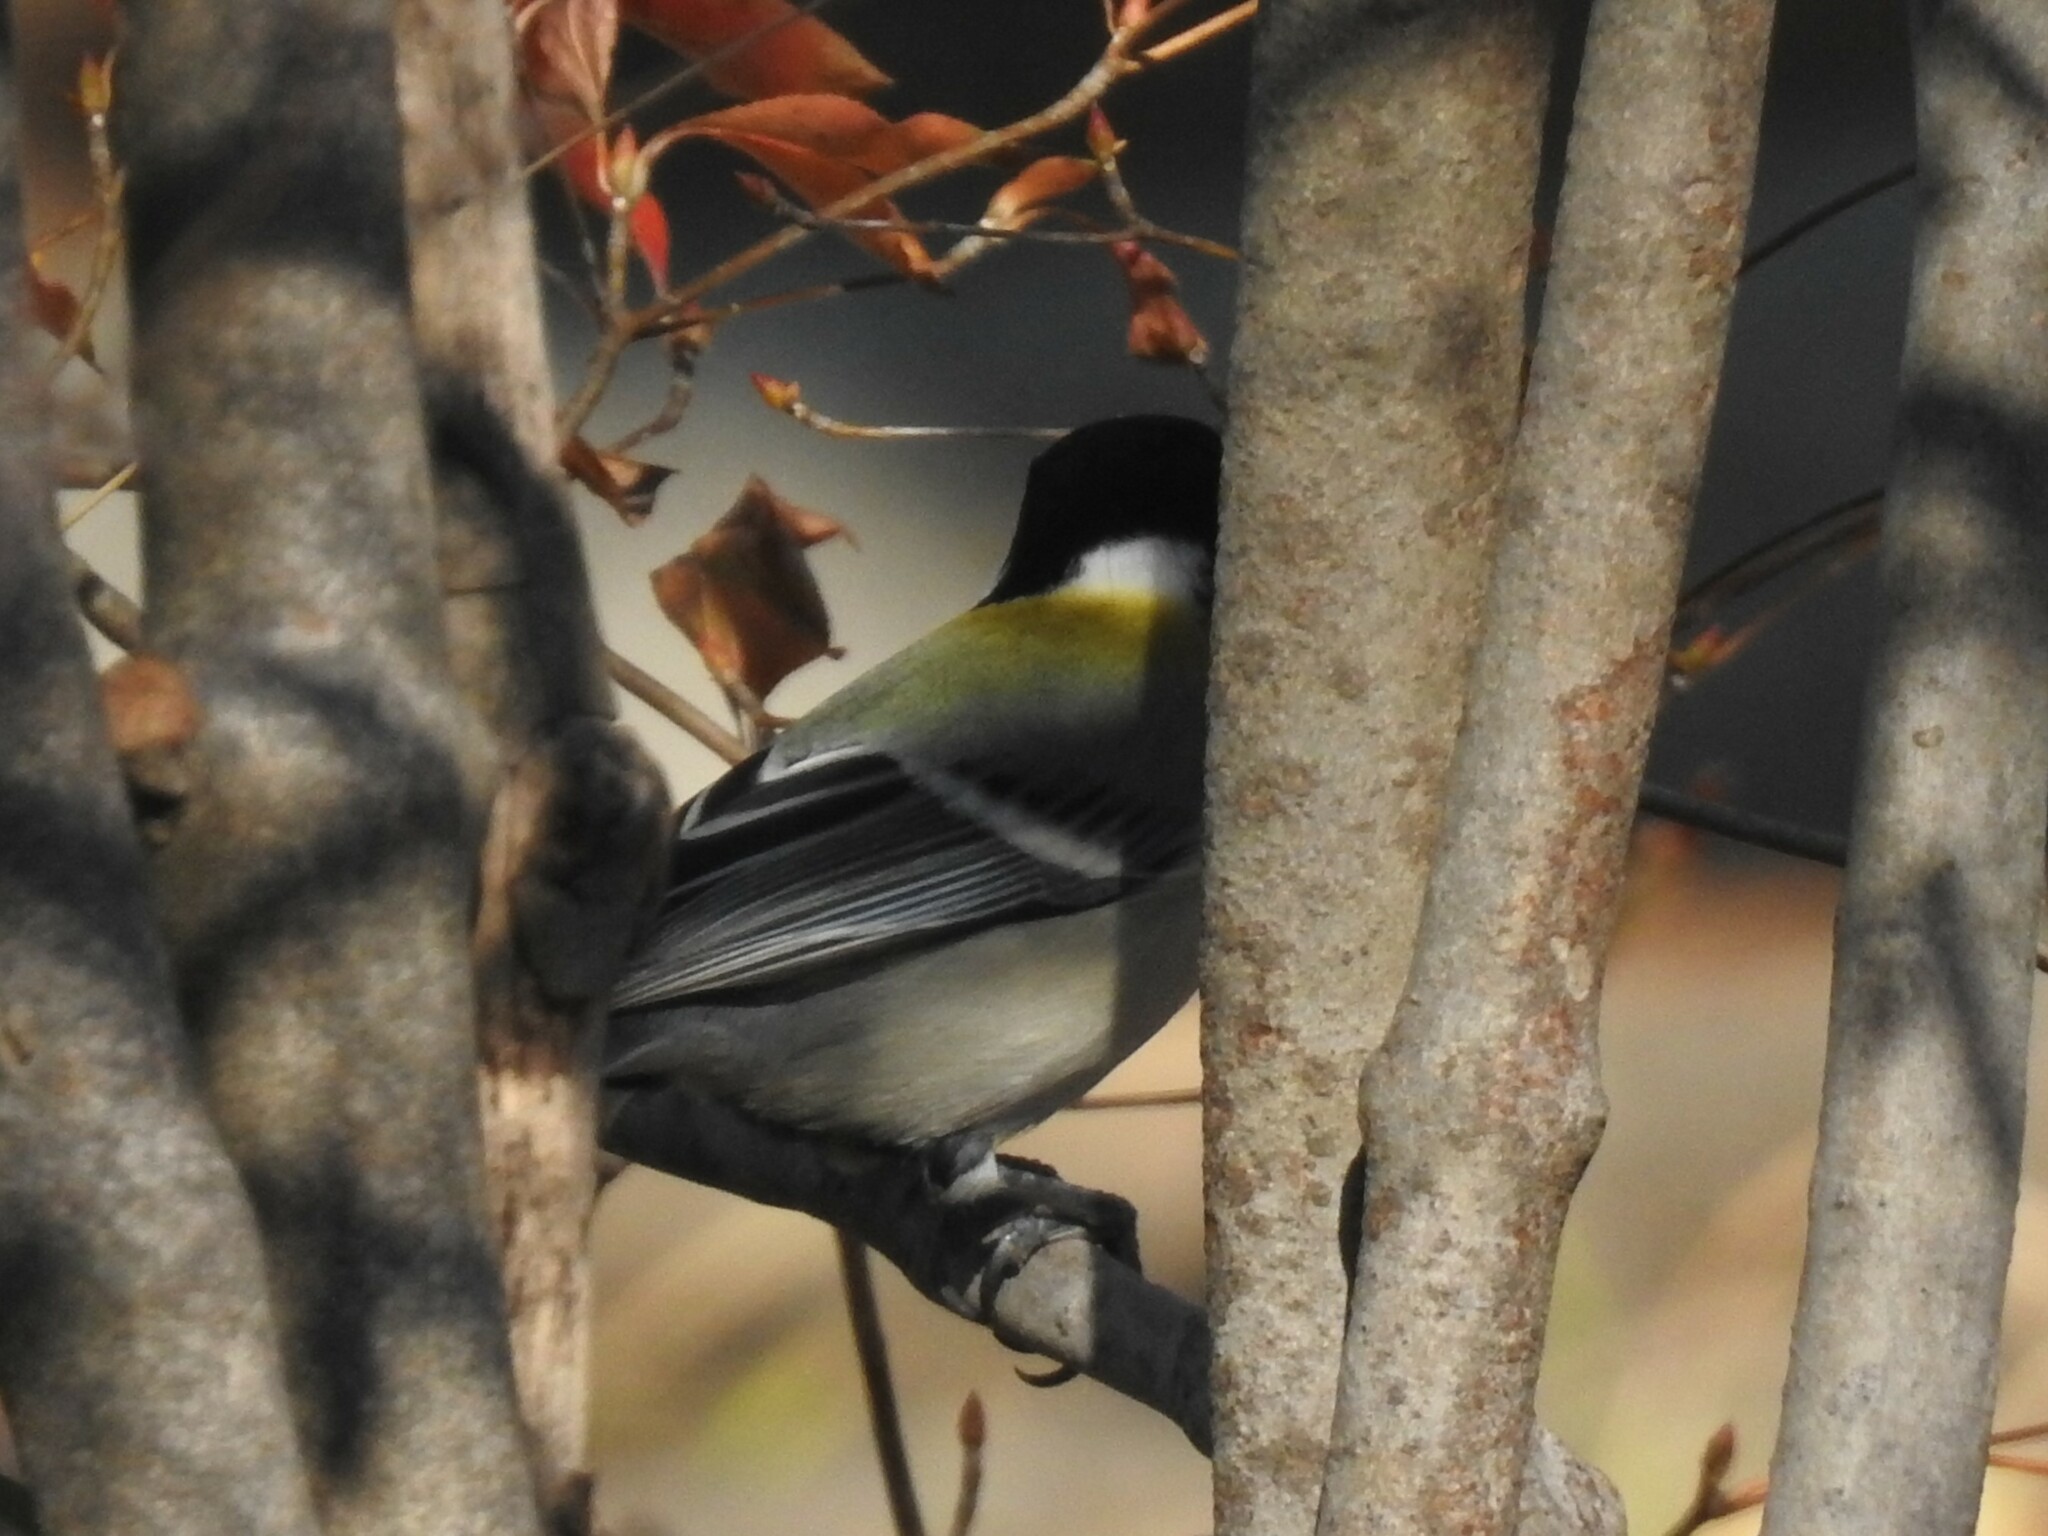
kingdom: Animalia
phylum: Chordata
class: Aves
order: Passeriformes
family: Paridae
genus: Parus
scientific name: Parus minor
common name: Japanese tit
